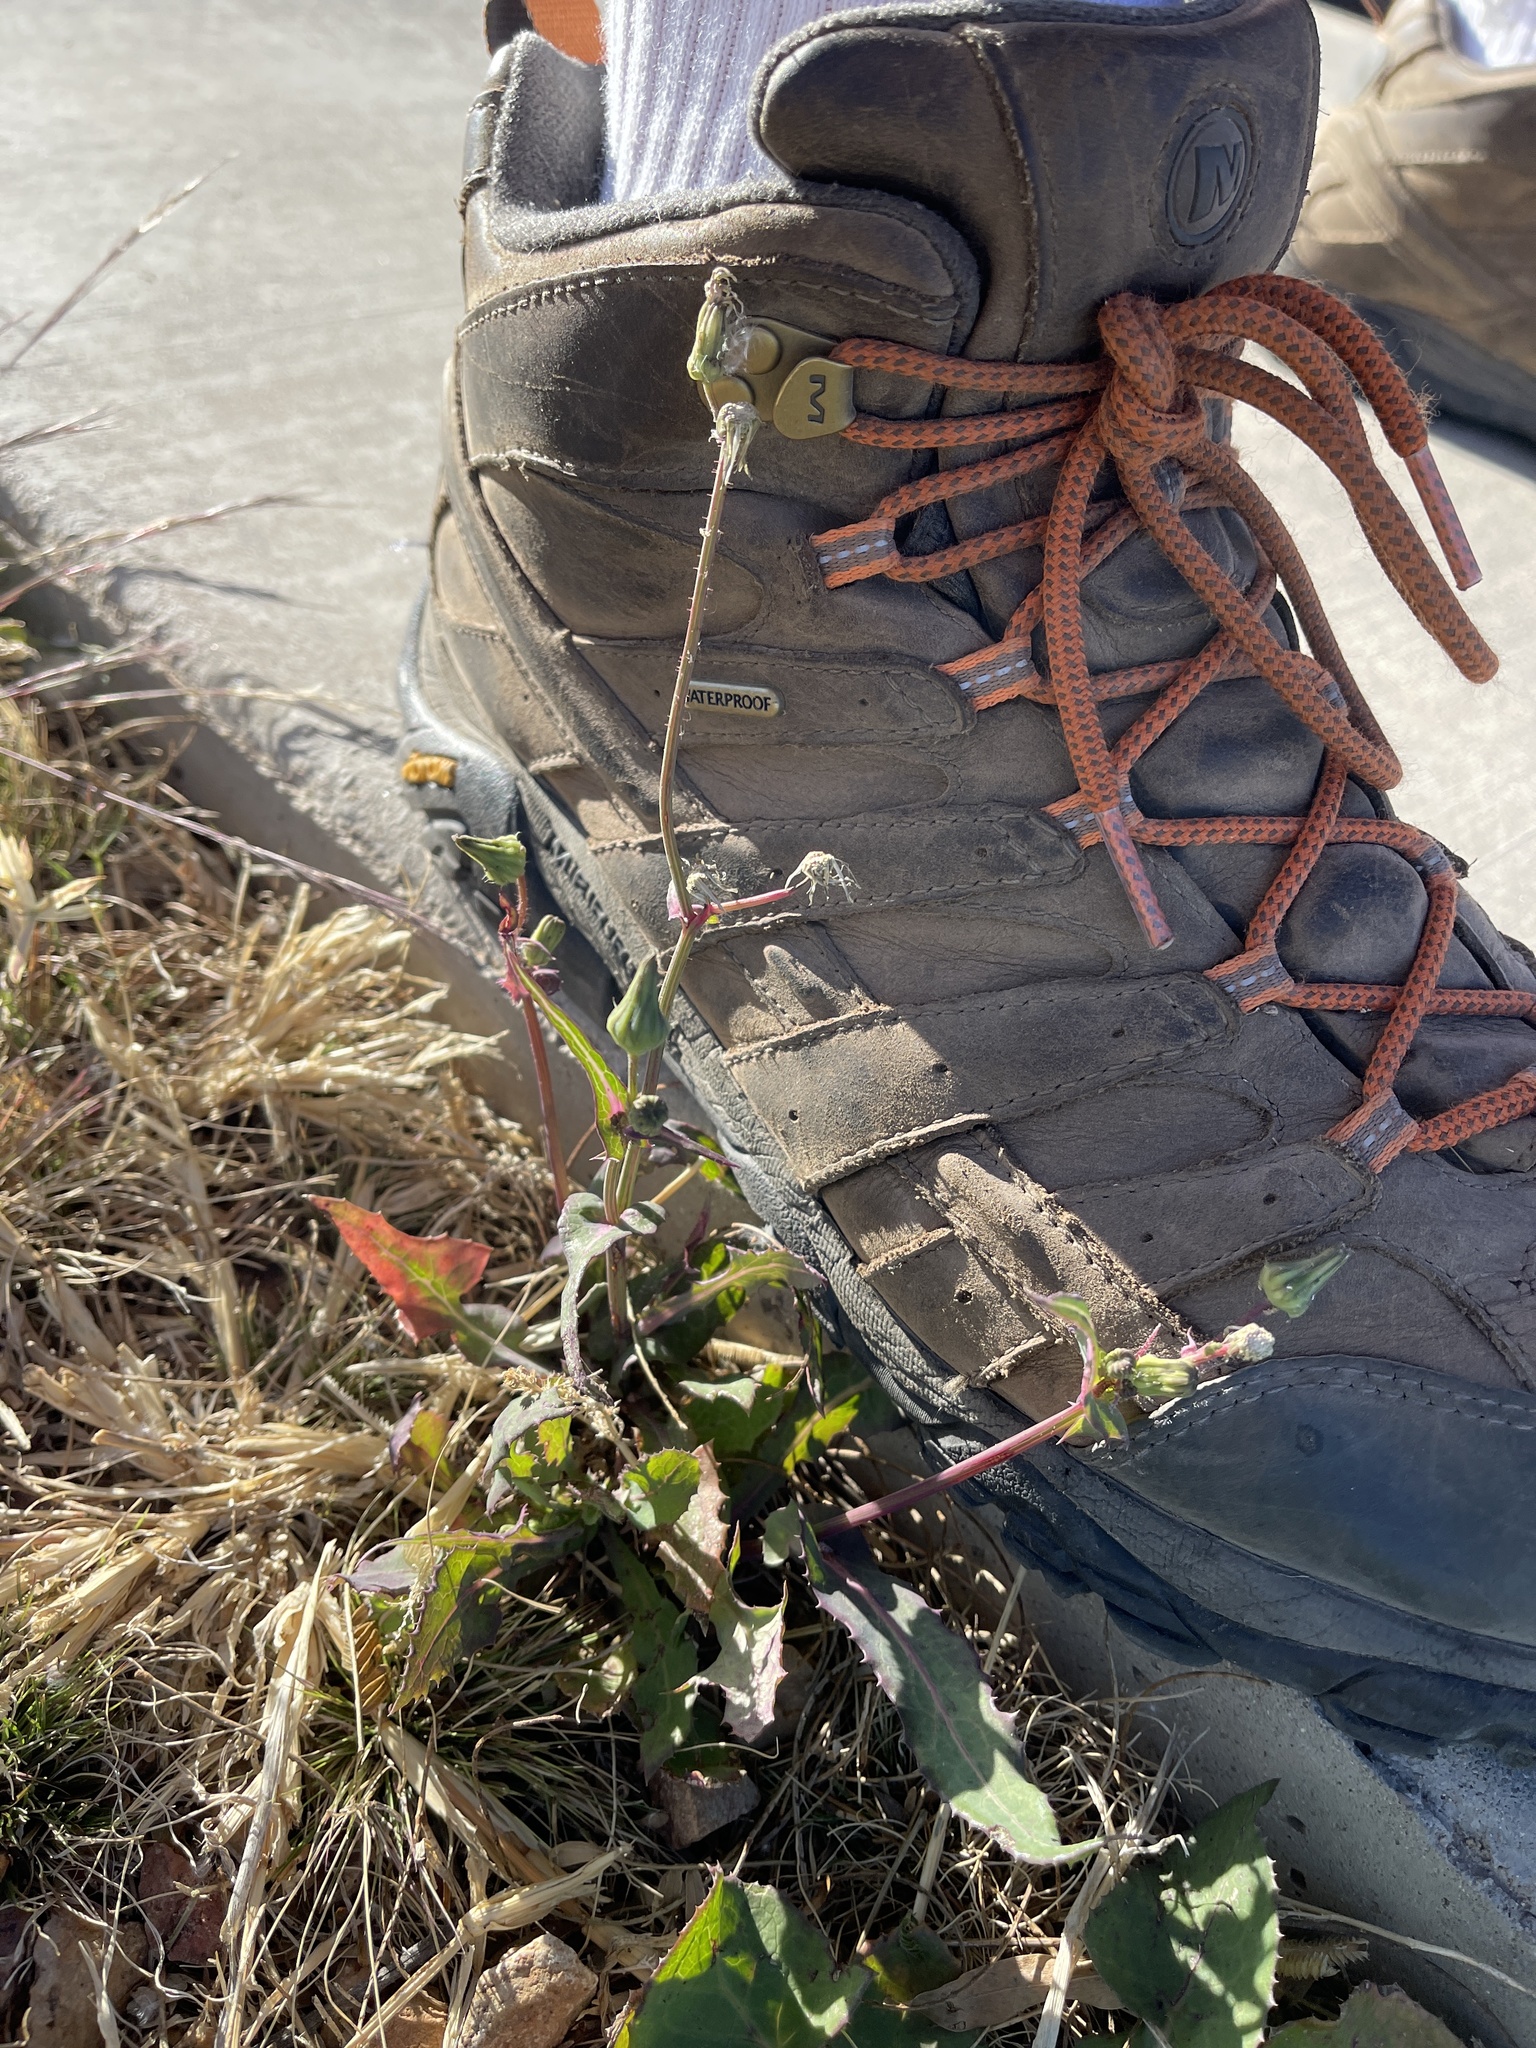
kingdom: Plantae
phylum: Tracheophyta
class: Magnoliopsida
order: Asterales
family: Asteraceae
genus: Sonchus
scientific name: Sonchus oleraceus
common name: Common sowthistle
